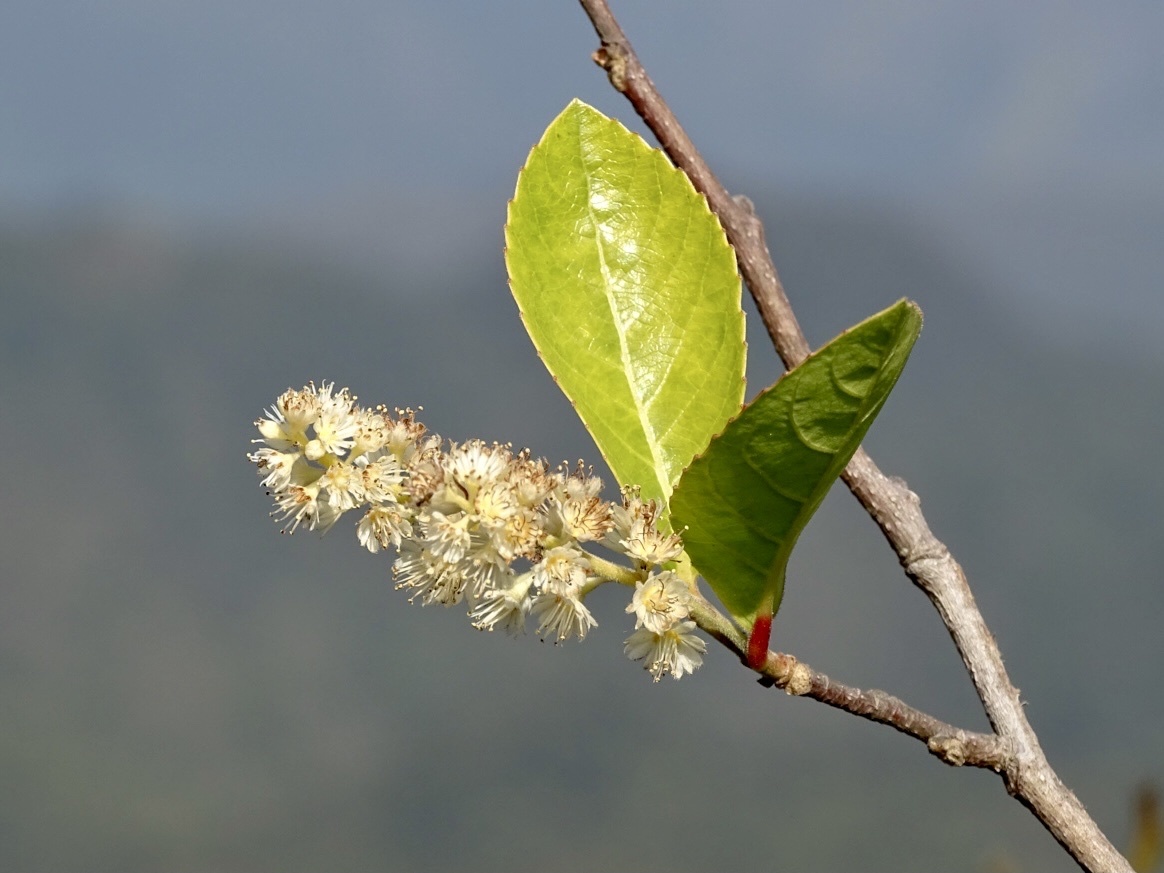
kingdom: Plantae
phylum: Tracheophyta
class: Magnoliopsida
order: Malpighiales
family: Salicaceae
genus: Homalium
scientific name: Homalium cochinchinensis
